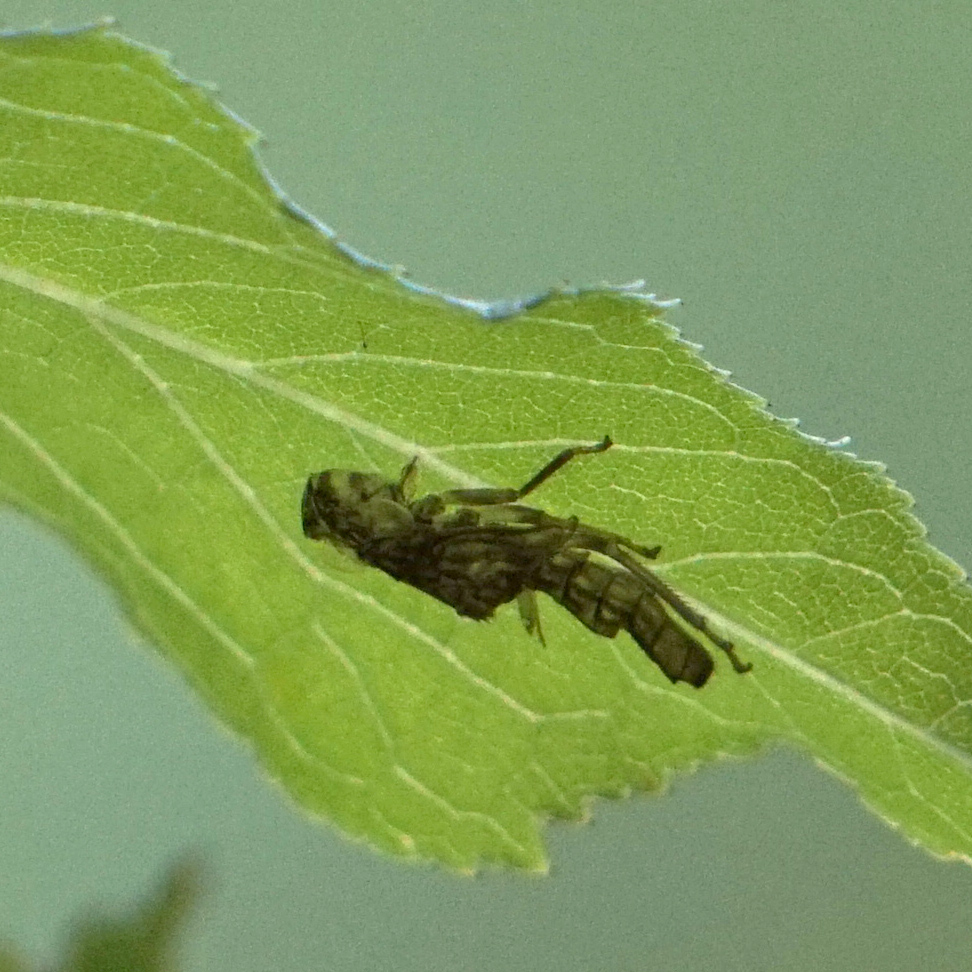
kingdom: Animalia
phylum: Arthropoda
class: Insecta
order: Hemiptera
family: Cicadellidae
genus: Oncometopia
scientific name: Oncometopia orbona
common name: Broad-headed sharpshooter
